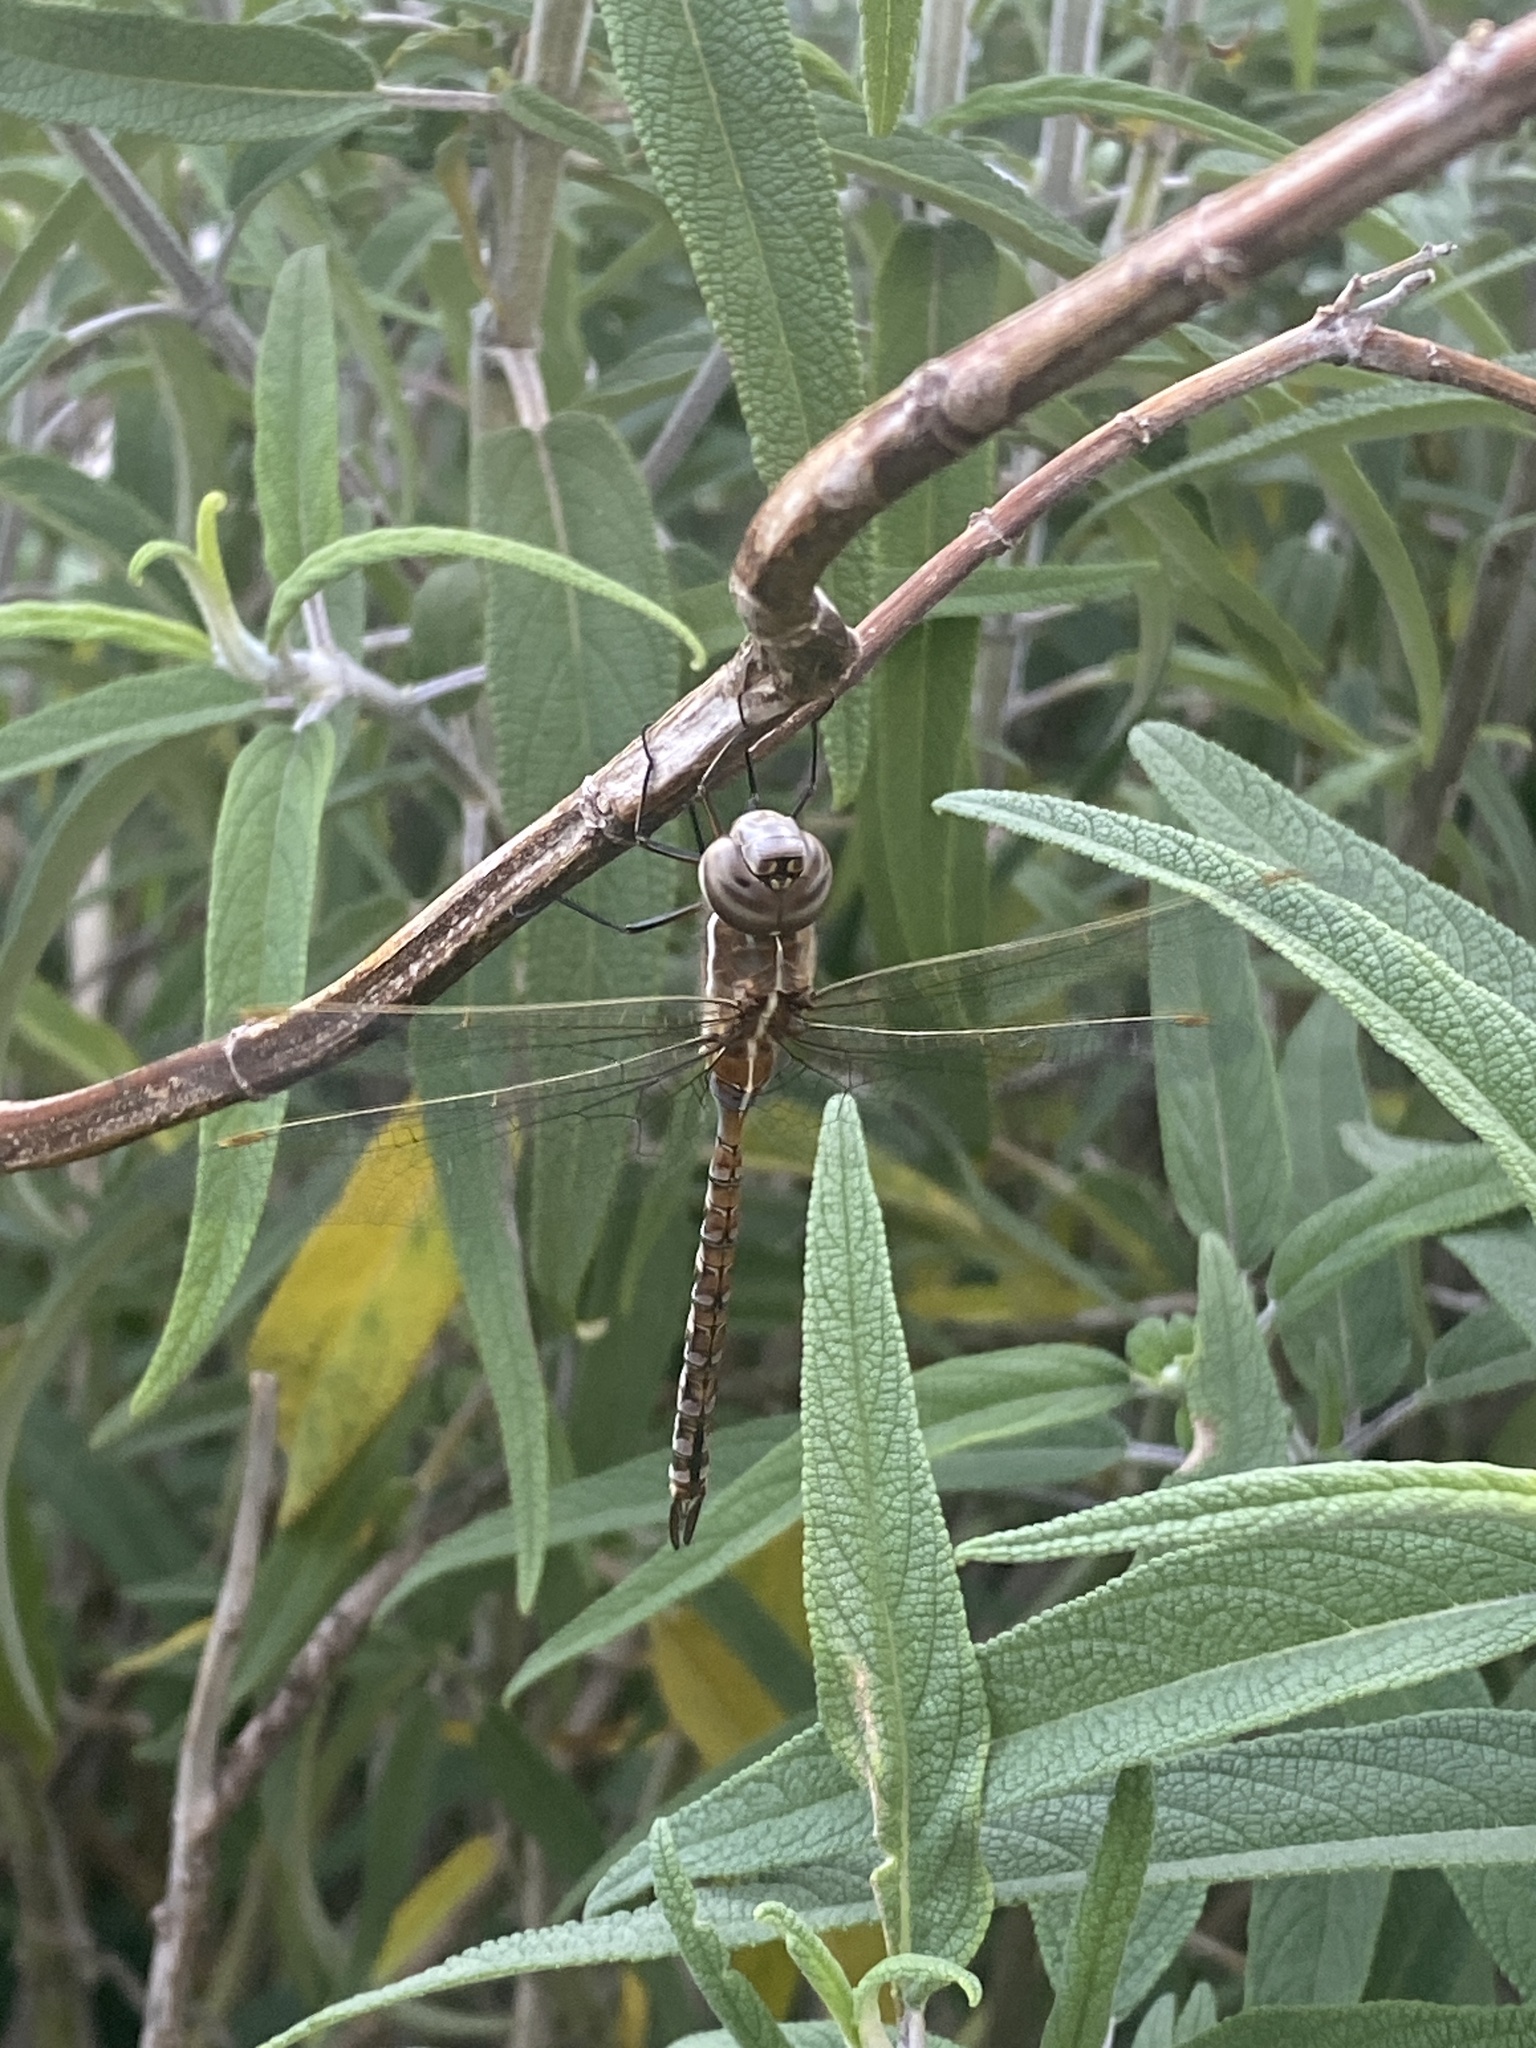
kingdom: Animalia
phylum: Arthropoda
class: Insecta
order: Odonata
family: Aeshnidae
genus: Rhionaeschna
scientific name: Rhionaeschna bonariensis
